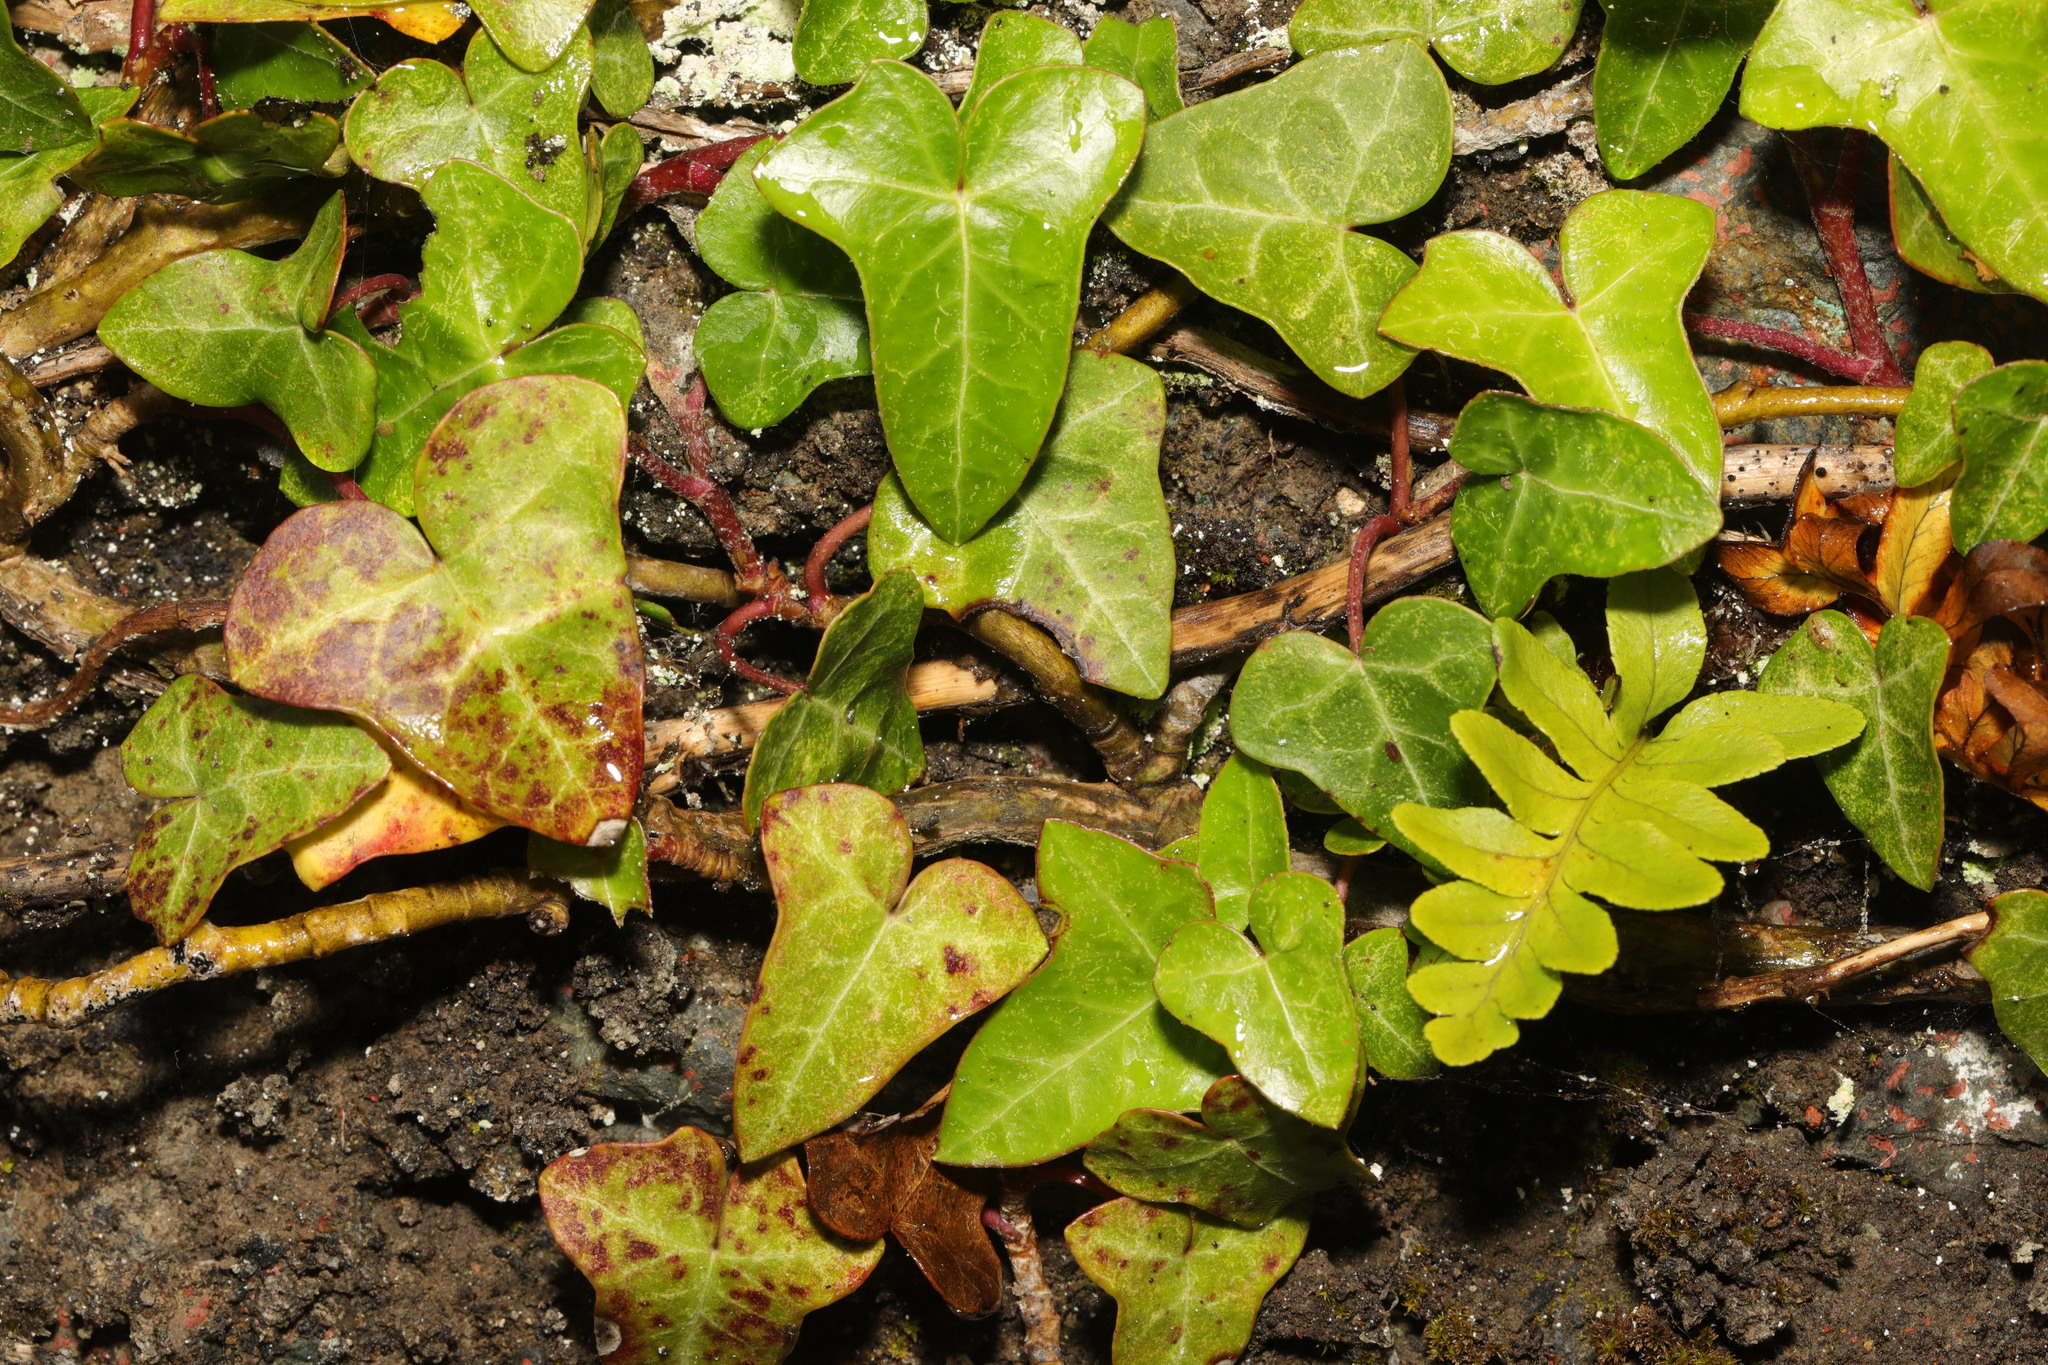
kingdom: Plantae
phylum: Tracheophyta
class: Magnoliopsida
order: Apiales
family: Araliaceae
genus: Hedera
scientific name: Hedera helix
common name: Ivy
